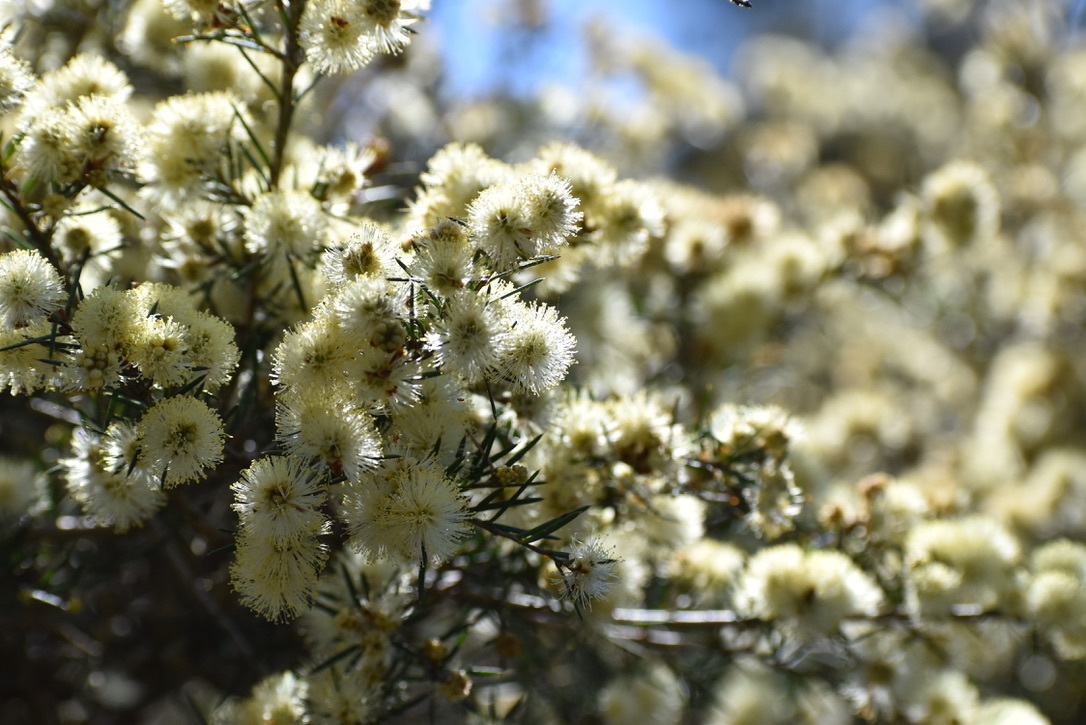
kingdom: Plantae
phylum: Tracheophyta
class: Magnoliopsida
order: Myrtales
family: Myrtaceae
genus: Melaleuca
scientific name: Melaleuca nodosa
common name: Prickly-leaf paperbark
